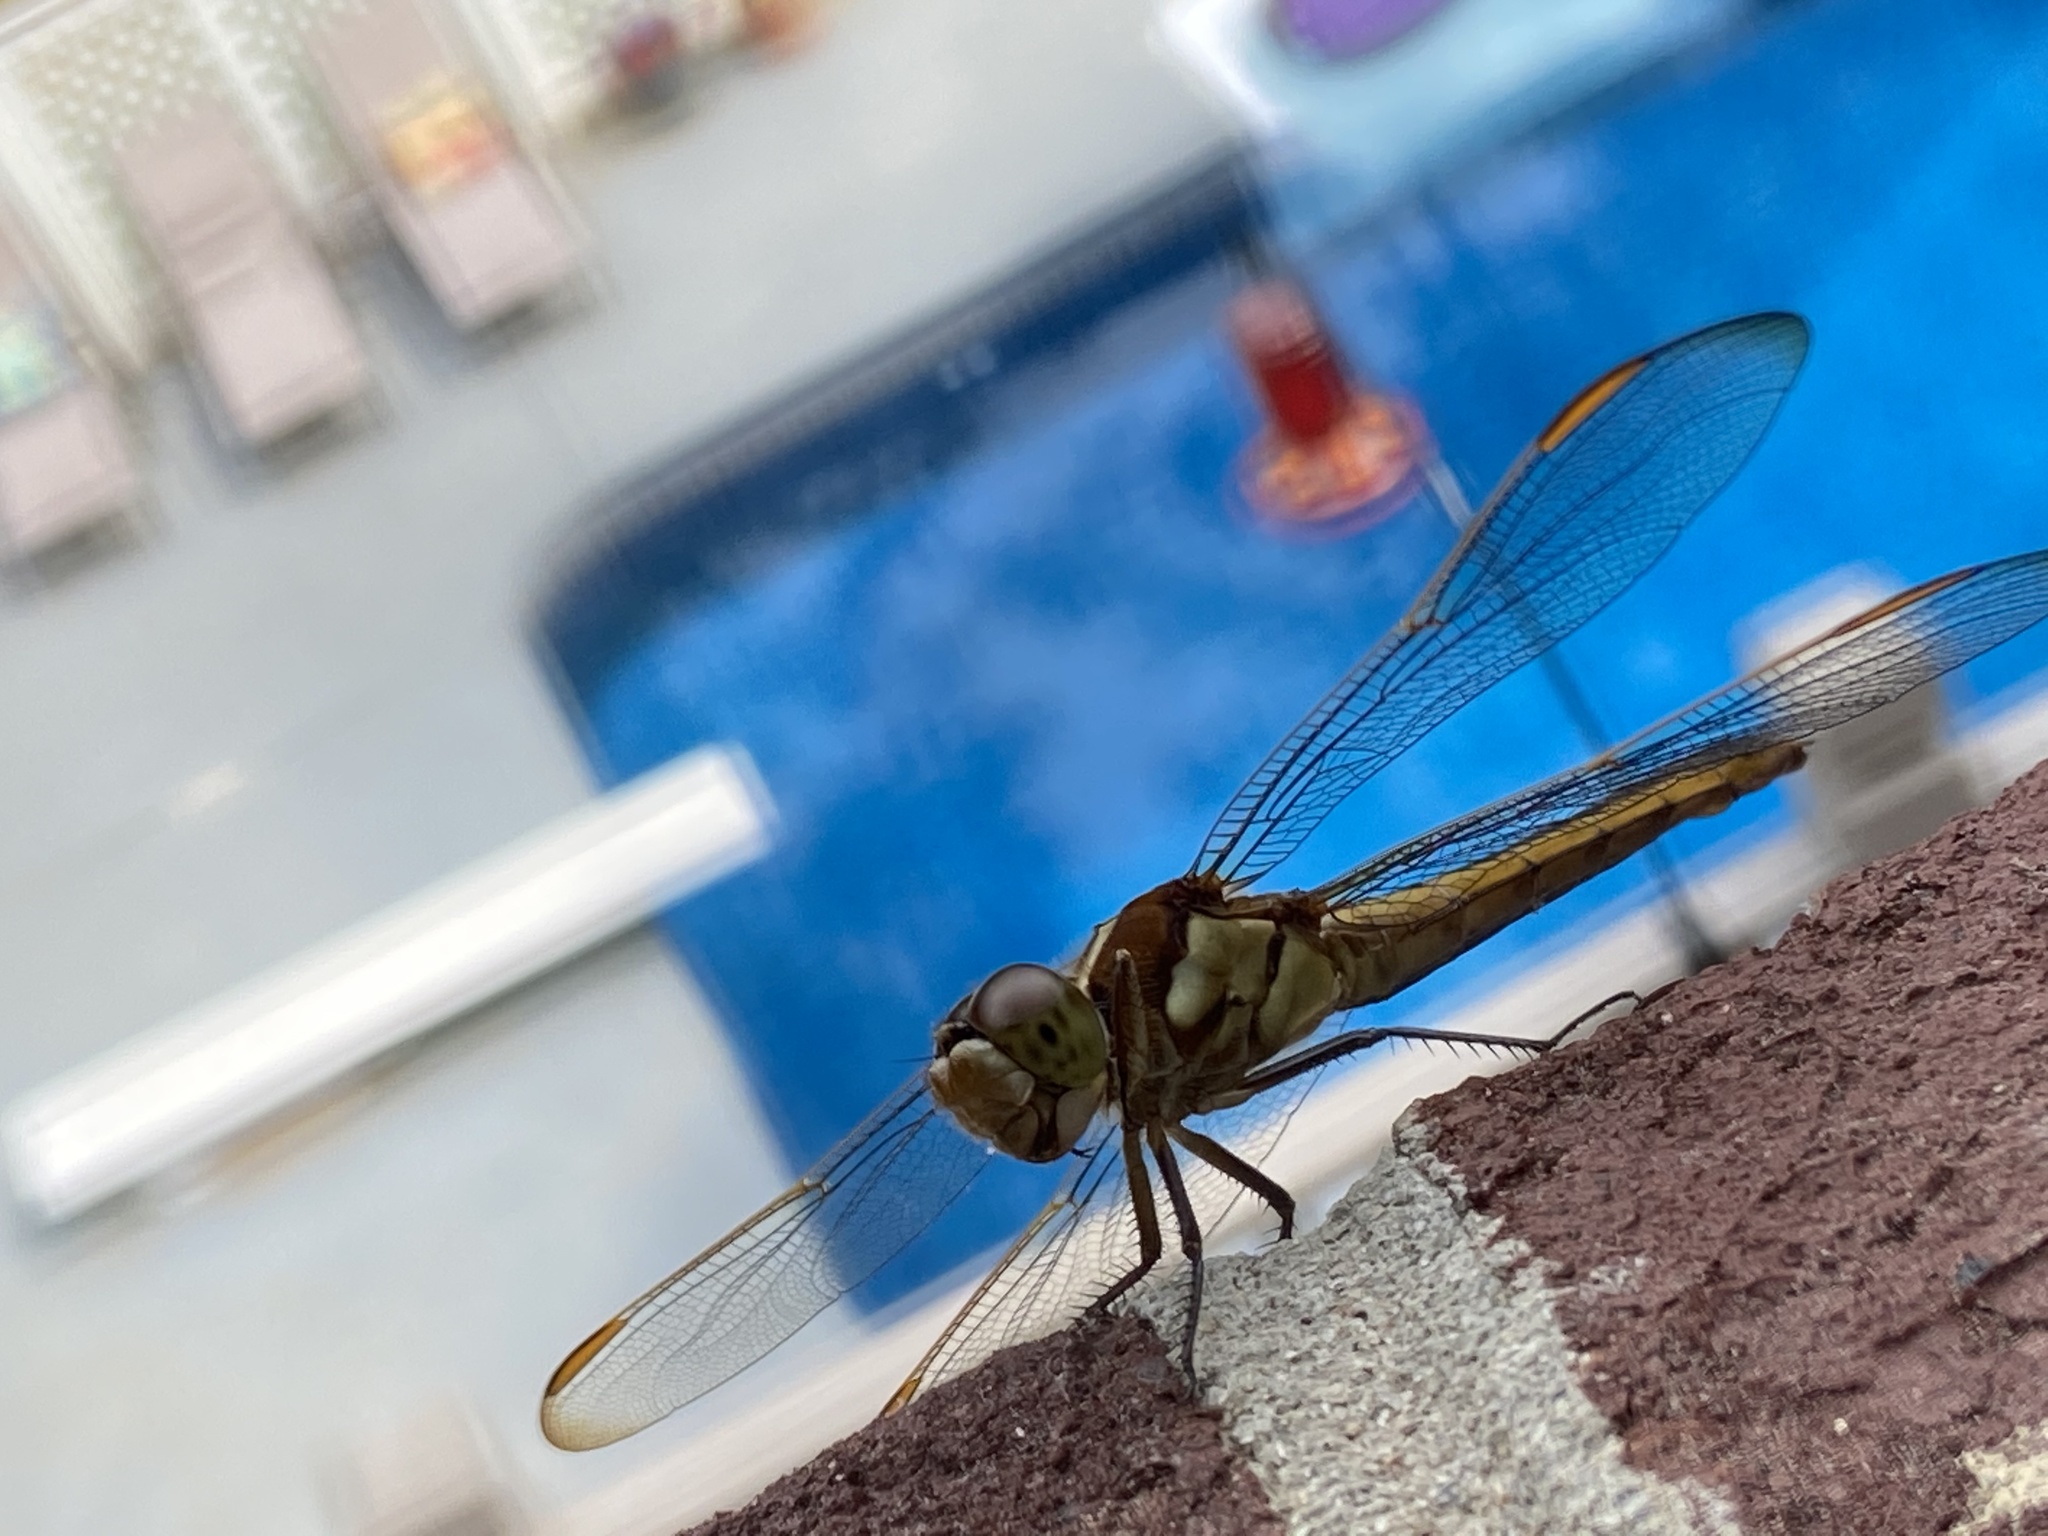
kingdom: Animalia
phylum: Arthropoda
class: Insecta
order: Odonata
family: Libellulidae
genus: Libellula
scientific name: Libellula auripennis
